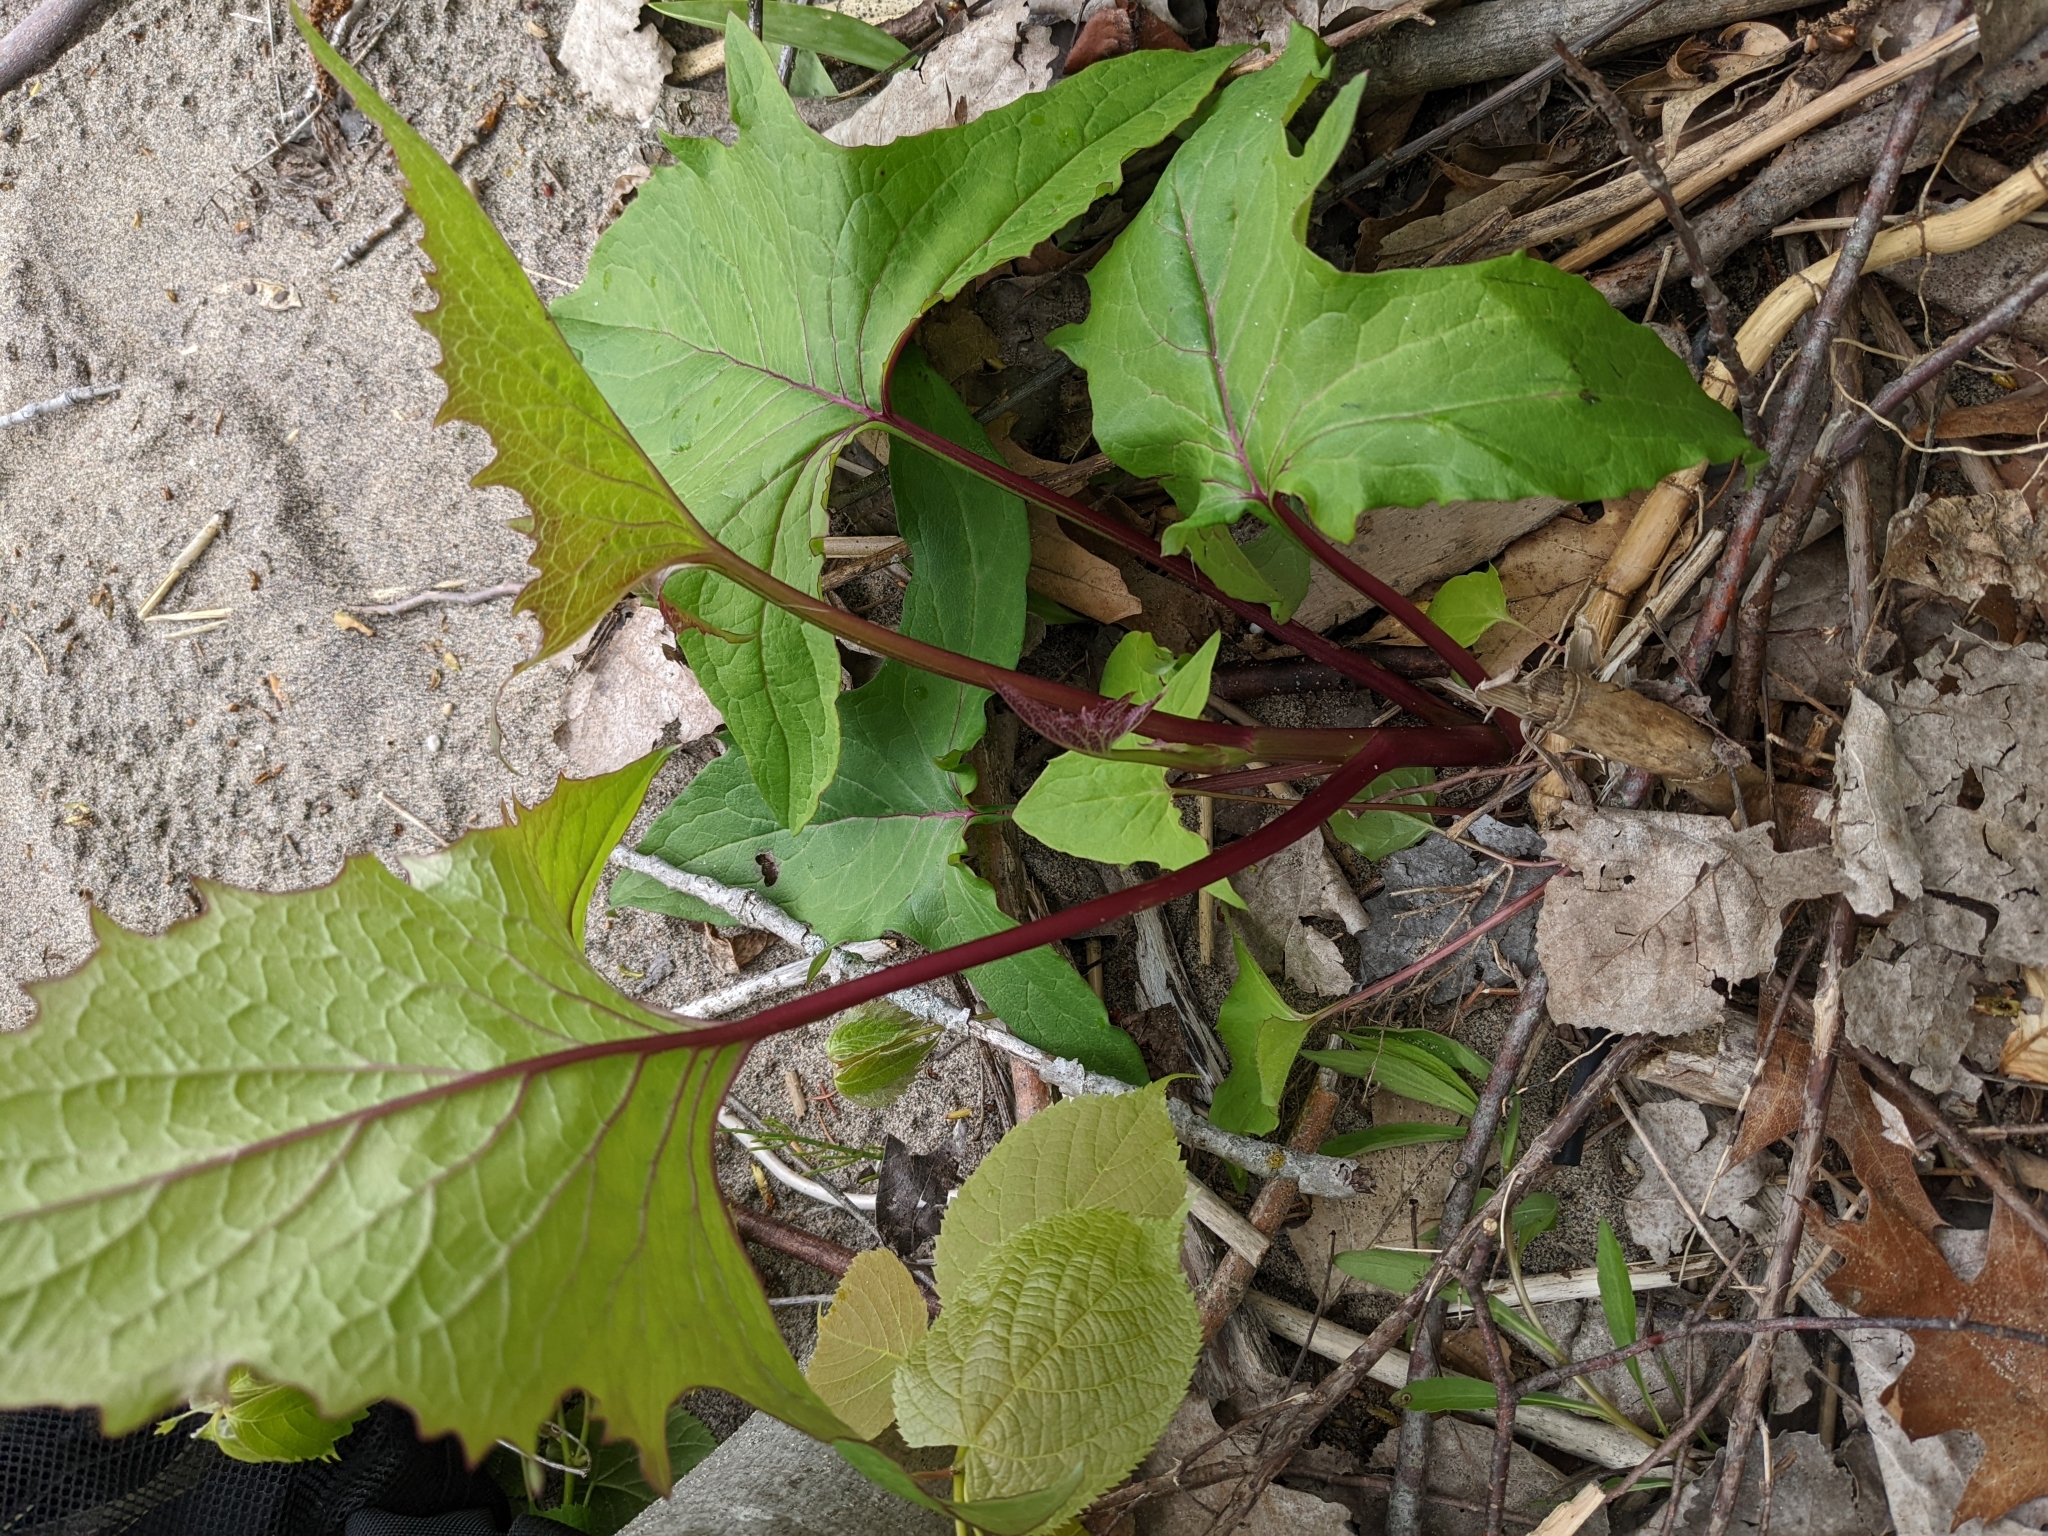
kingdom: Plantae
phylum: Tracheophyta
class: Magnoliopsida
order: Asterales
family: Asteraceae
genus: Nabalus
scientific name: Nabalus albus
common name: White rattlesnakeroot
